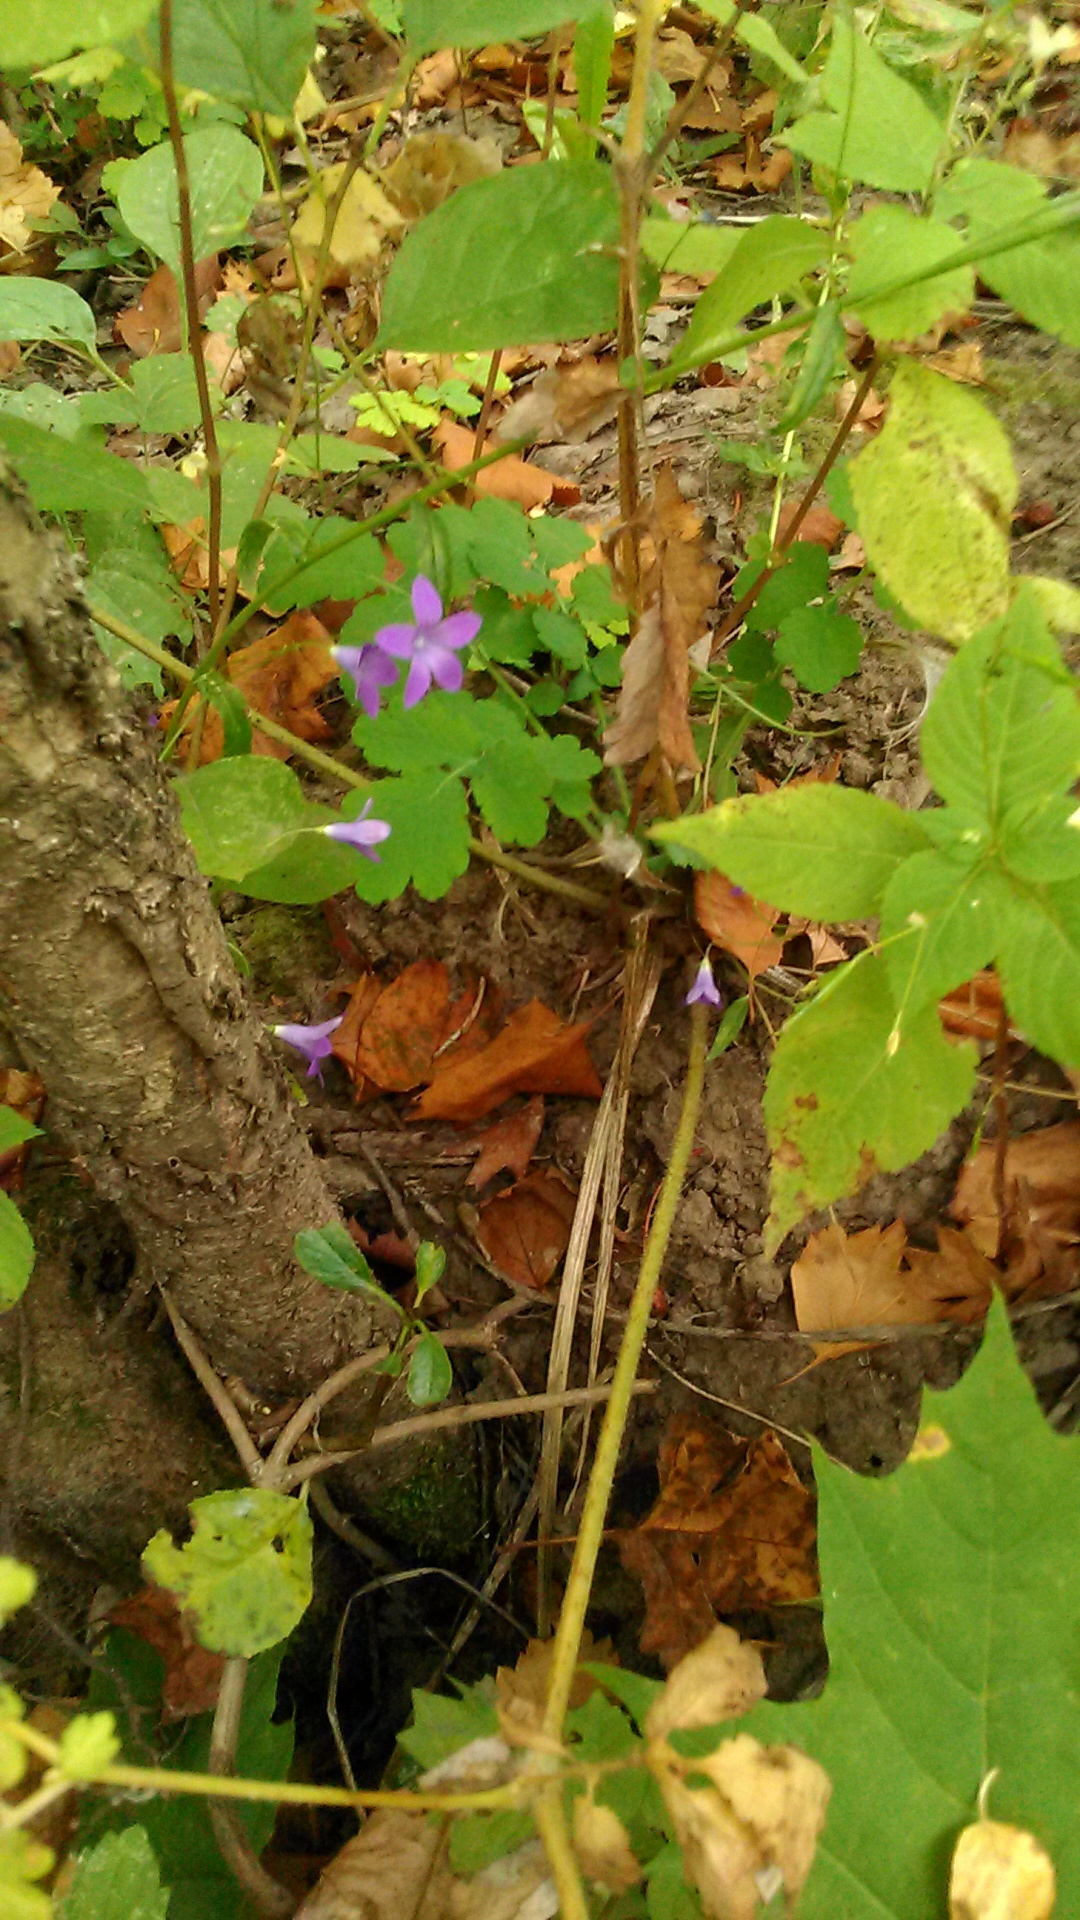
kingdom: Plantae
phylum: Tracheophyta
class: Magnoliopsida
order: Asterales
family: Campanulaceae
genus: Campanula
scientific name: Campanula patula
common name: Spreading bellflower
